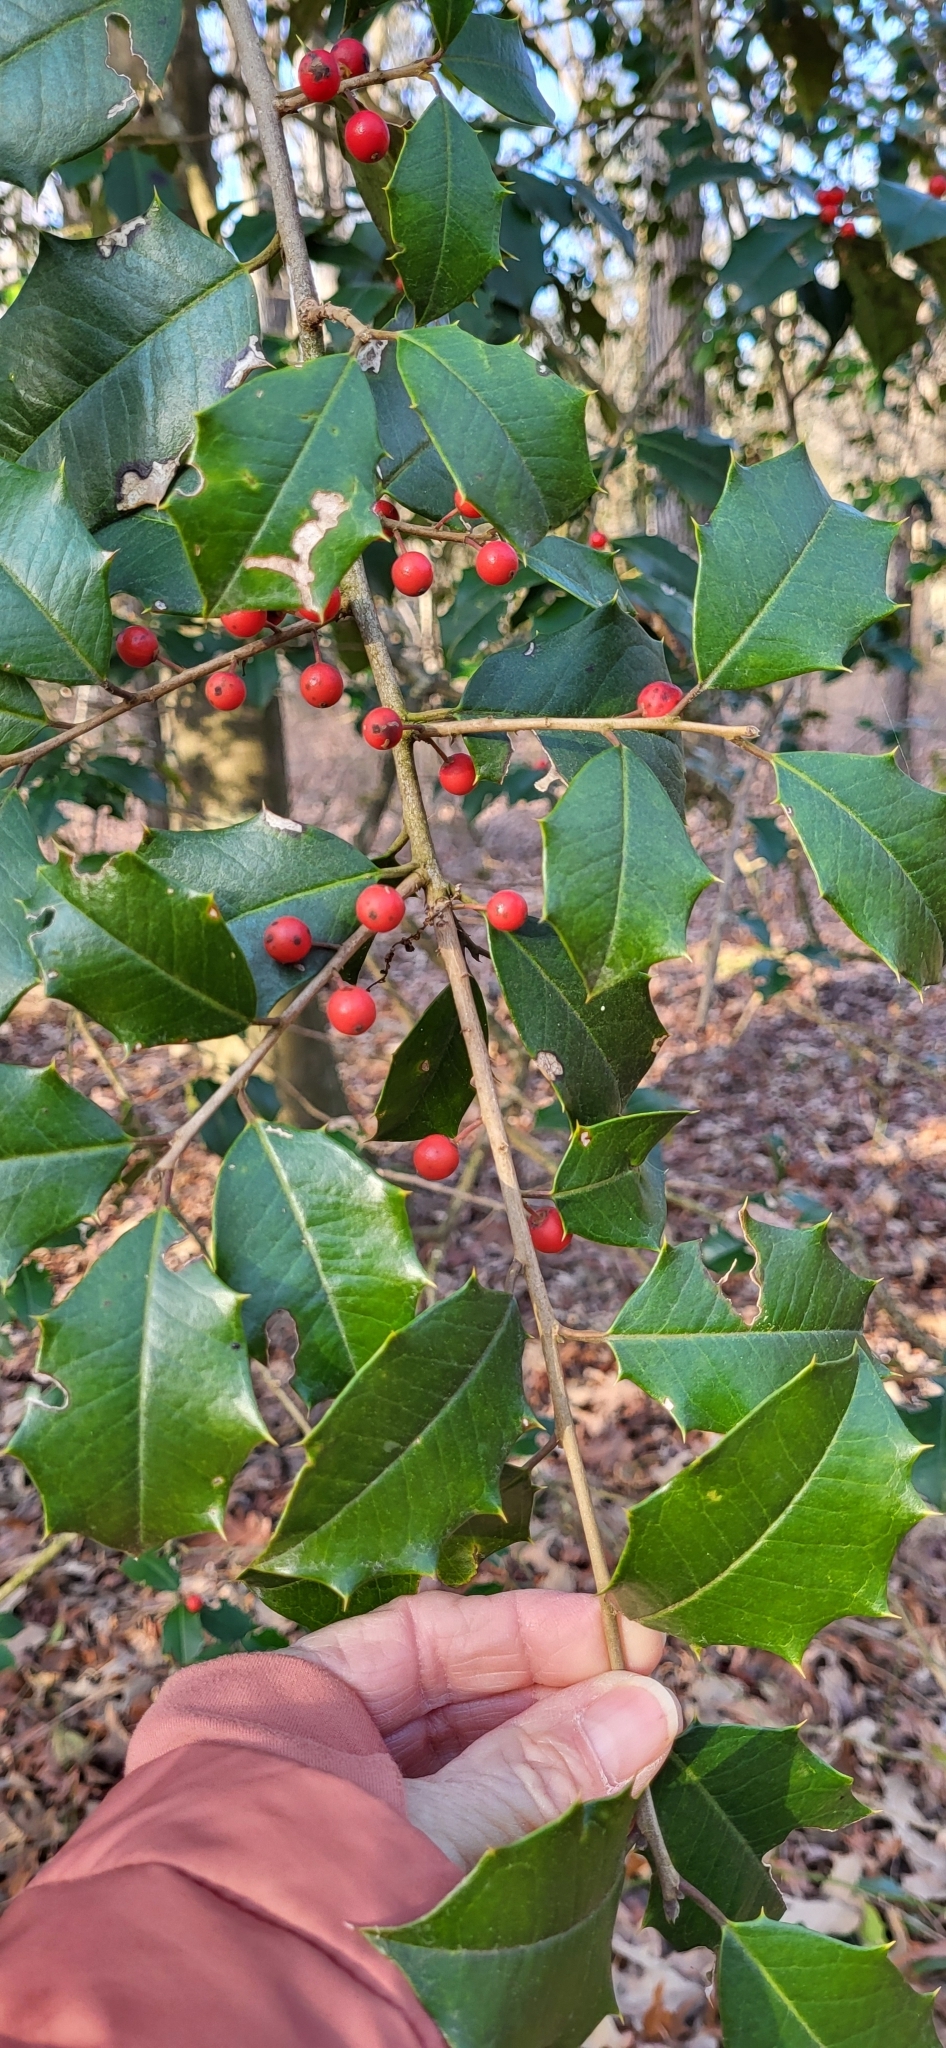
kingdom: Plantae
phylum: Tracheophyta
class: Magnoliopsida
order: Aquifoliales
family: Aquifoliaceae
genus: Ilex
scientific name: Ilex opaca
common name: American holly
